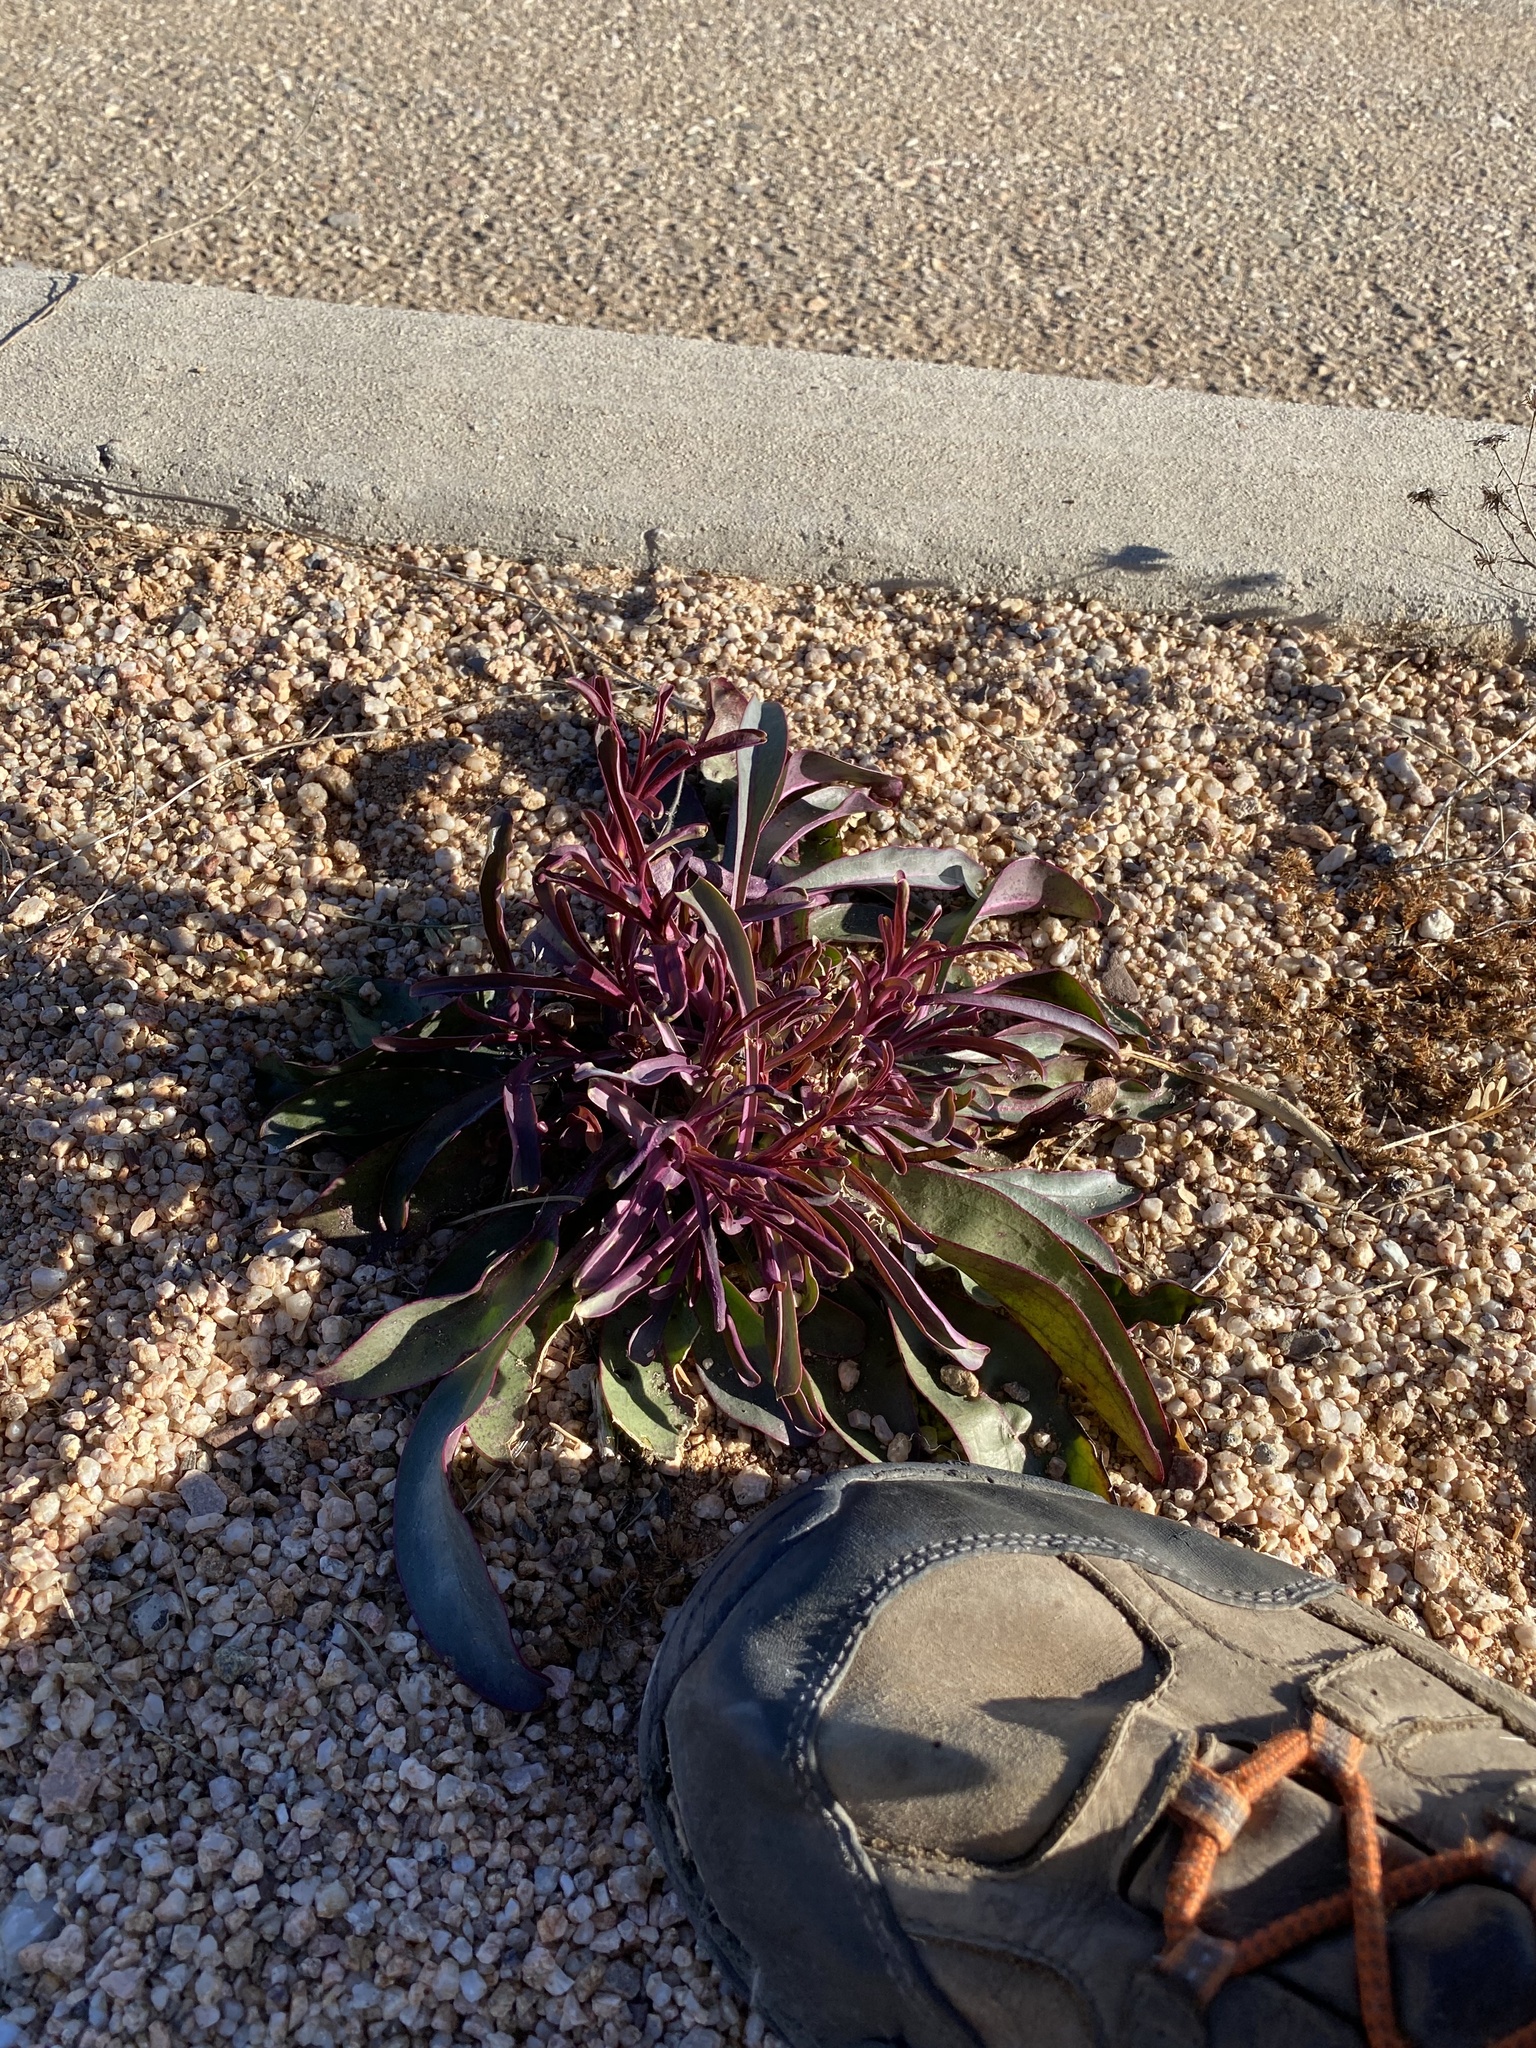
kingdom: Plantae
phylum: Tracheophyta
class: Magnoliopsida
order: Lamiales
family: Plantaginaceae
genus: Penstemon
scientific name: Penstemon parryi
